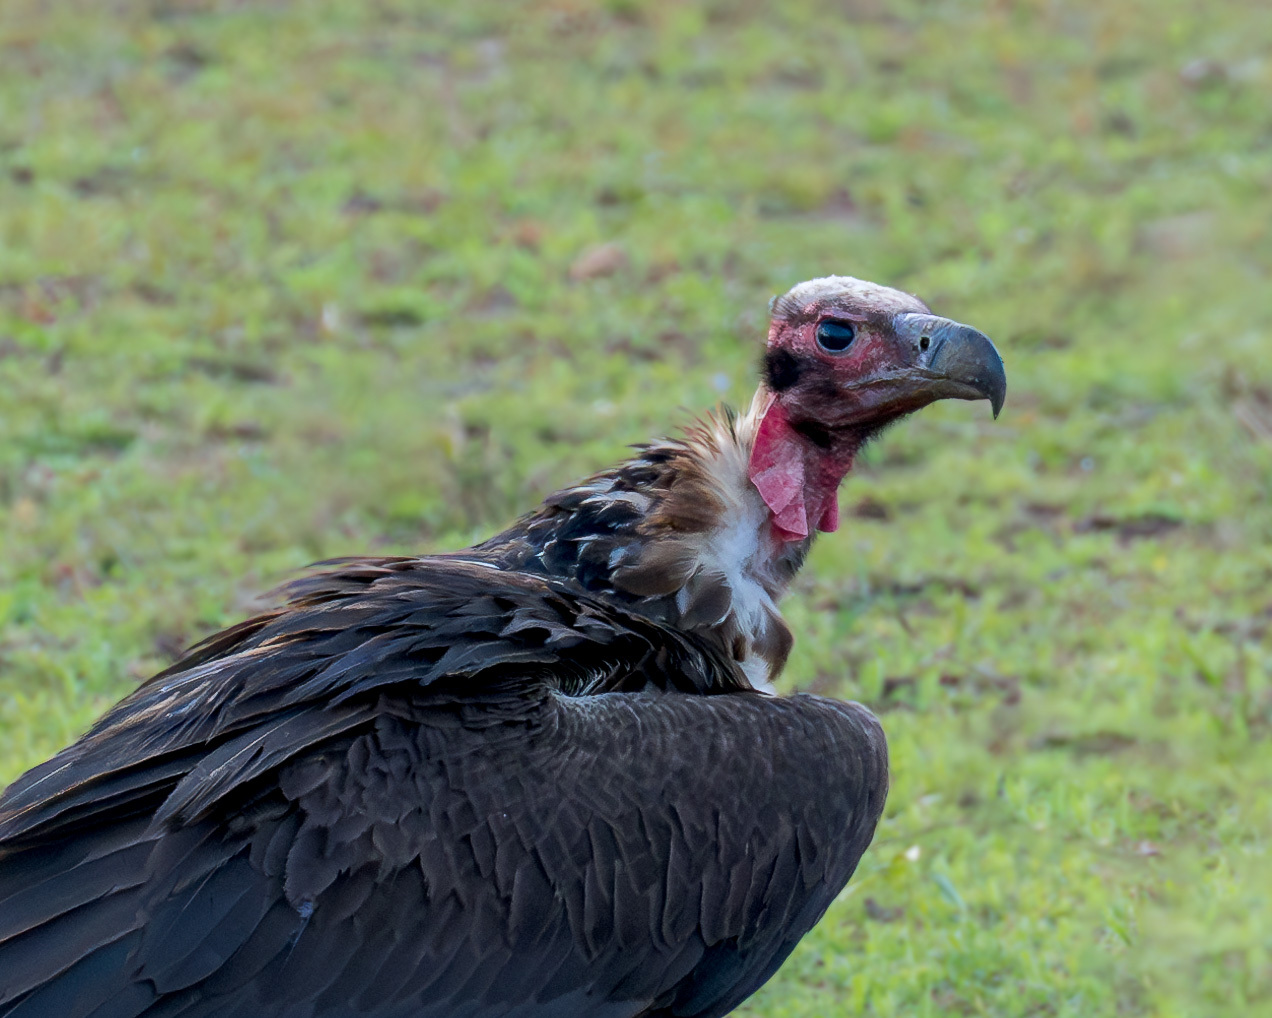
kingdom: Animalia
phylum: Chordata
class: Aves
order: Accipitriformes
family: Accipitridae
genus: Sarcogyps
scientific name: Sarcogyps calvus
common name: Red-headed vulture
